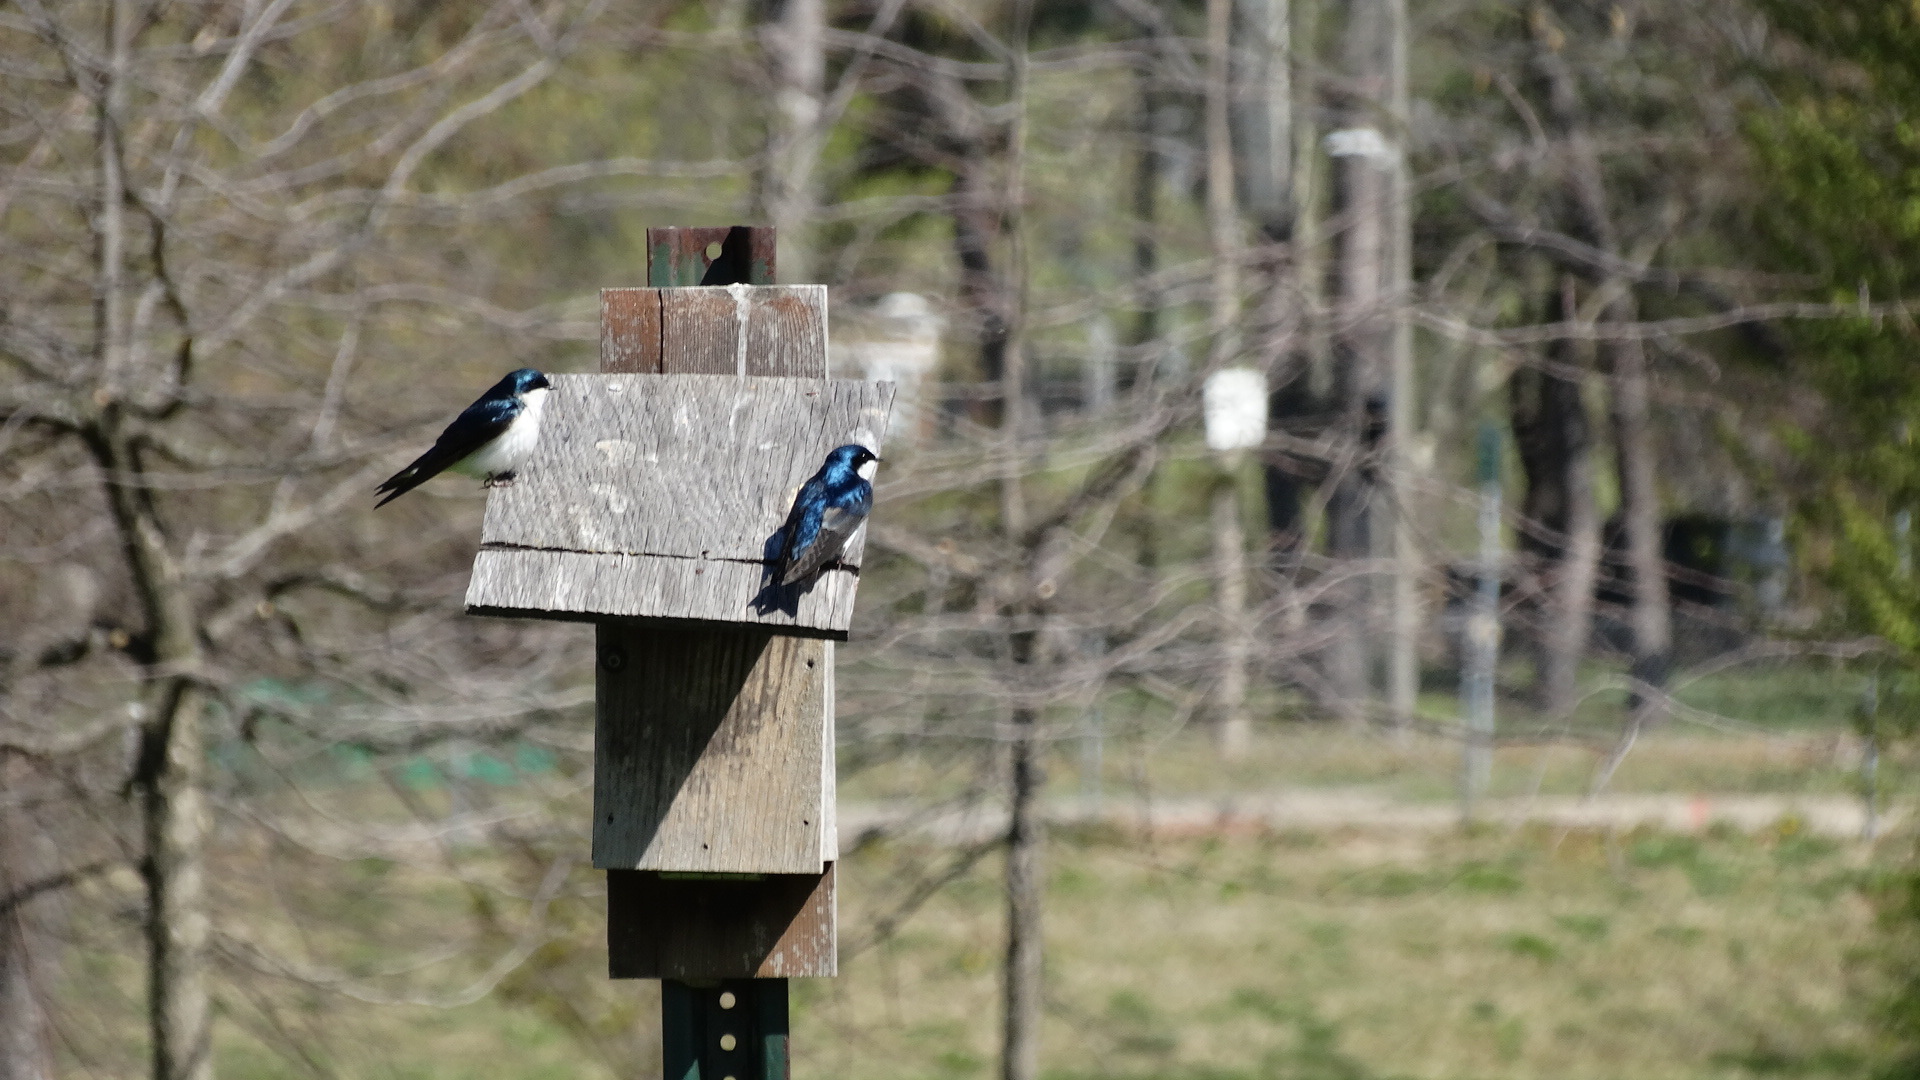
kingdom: Animalia
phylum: Chordata
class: Aves
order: Passeriformes
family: Hirundinidae
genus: Tachycineta
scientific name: Tachycineta bicolor
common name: Tree swallow
